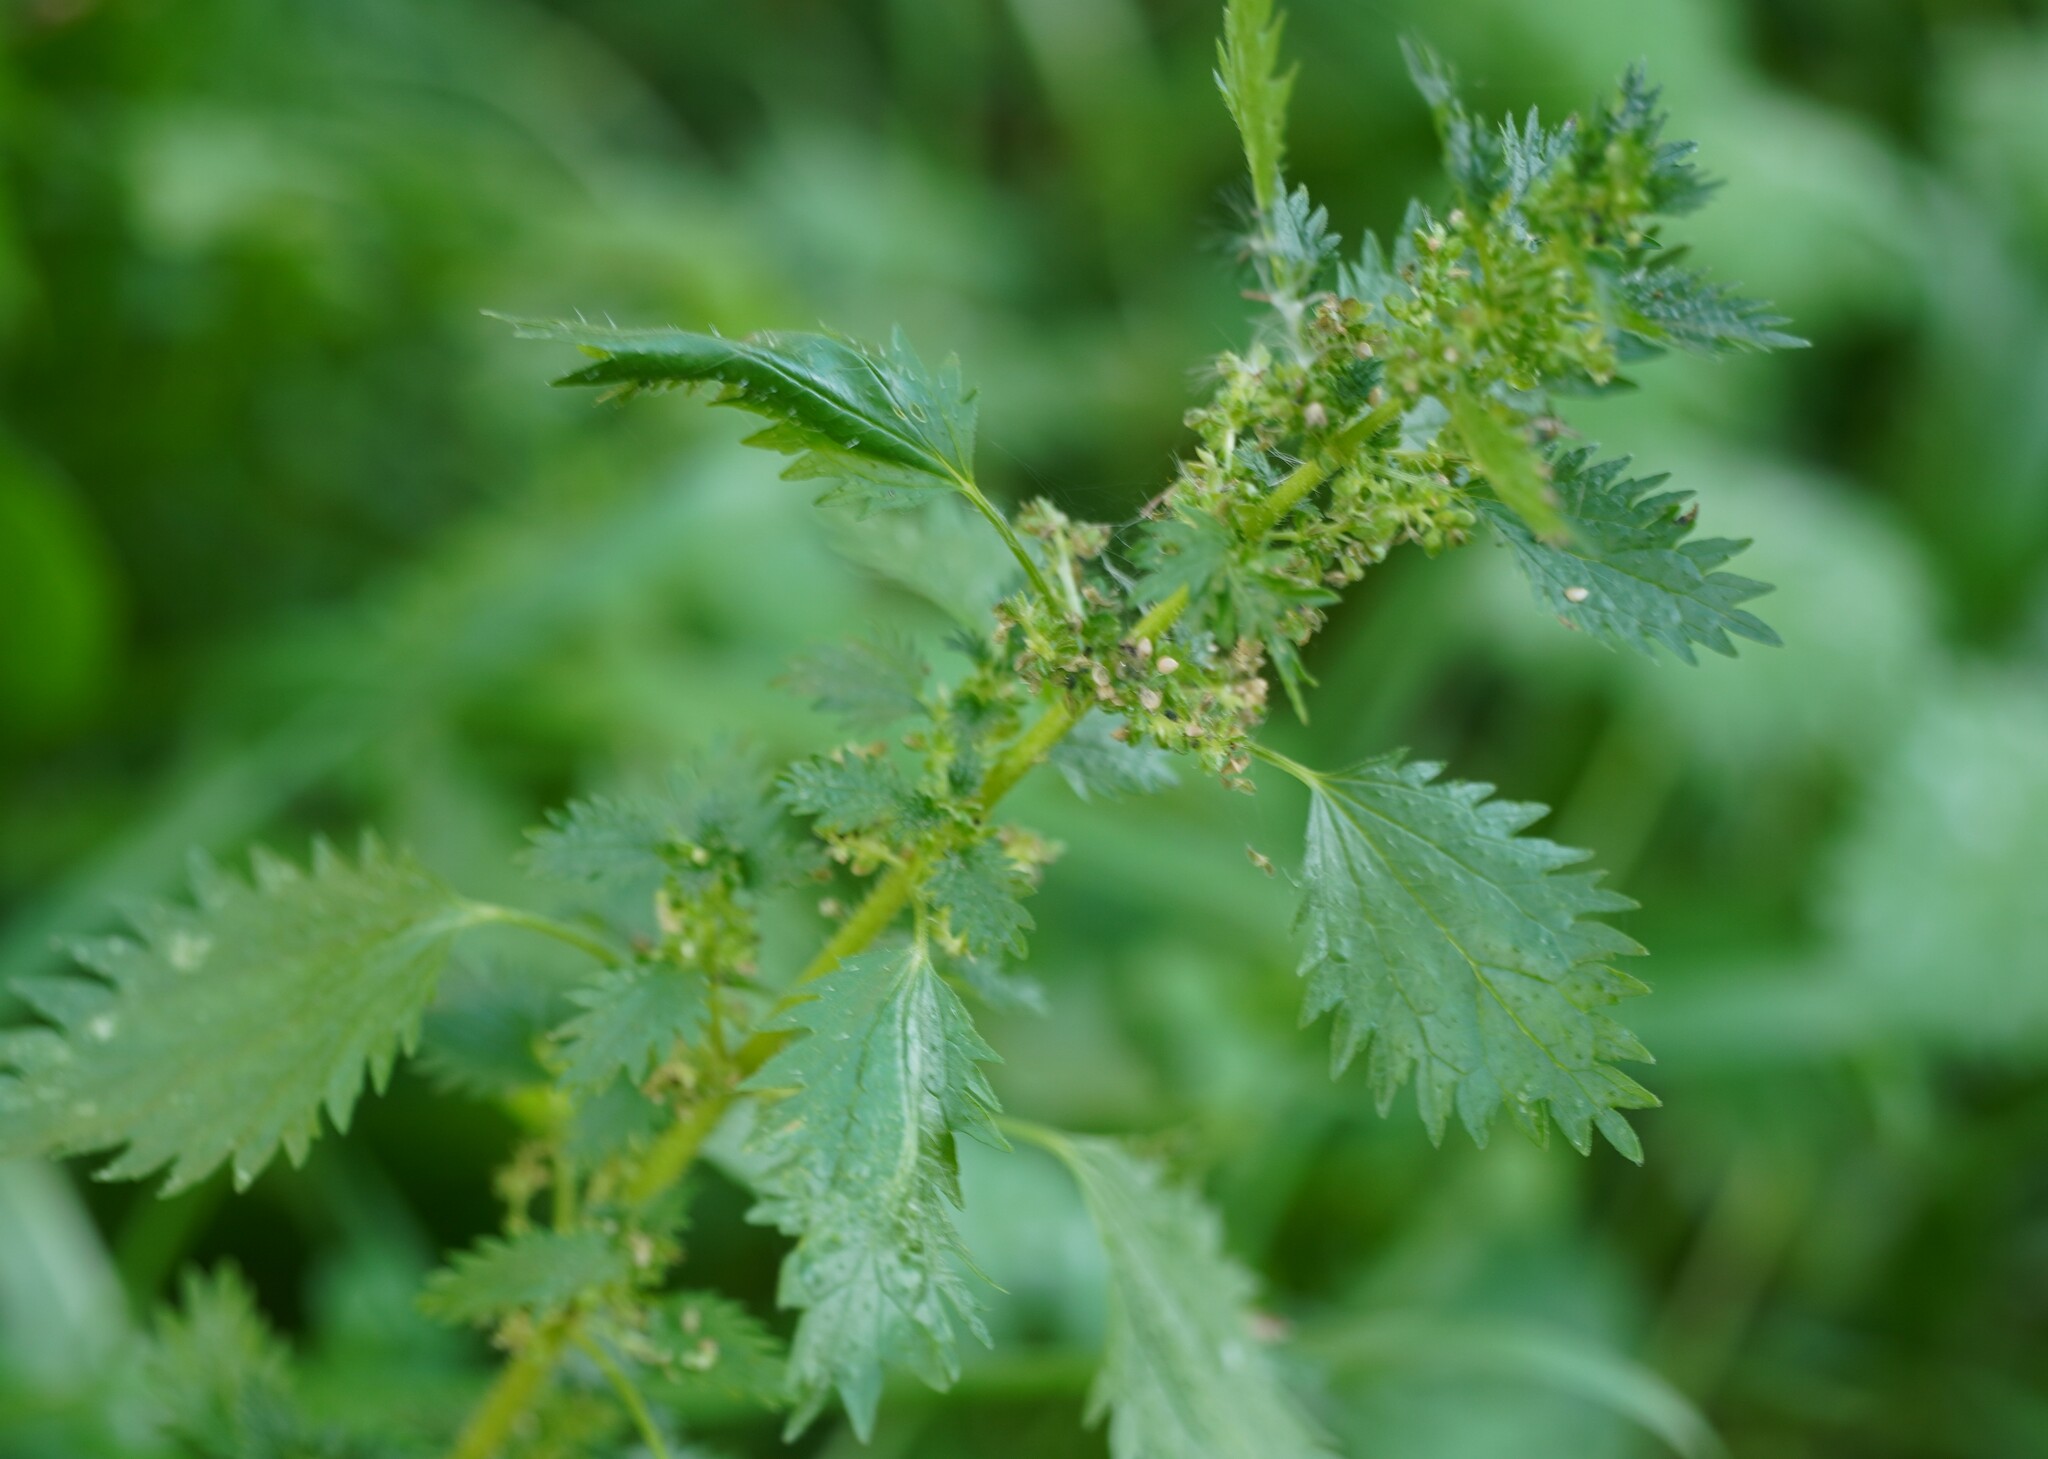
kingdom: Plantae
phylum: Tracheophyta
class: Magnoliopsida
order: Rosales
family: Urticaceae
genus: Urtica
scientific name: Urtica urens
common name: Dwarf nettle
